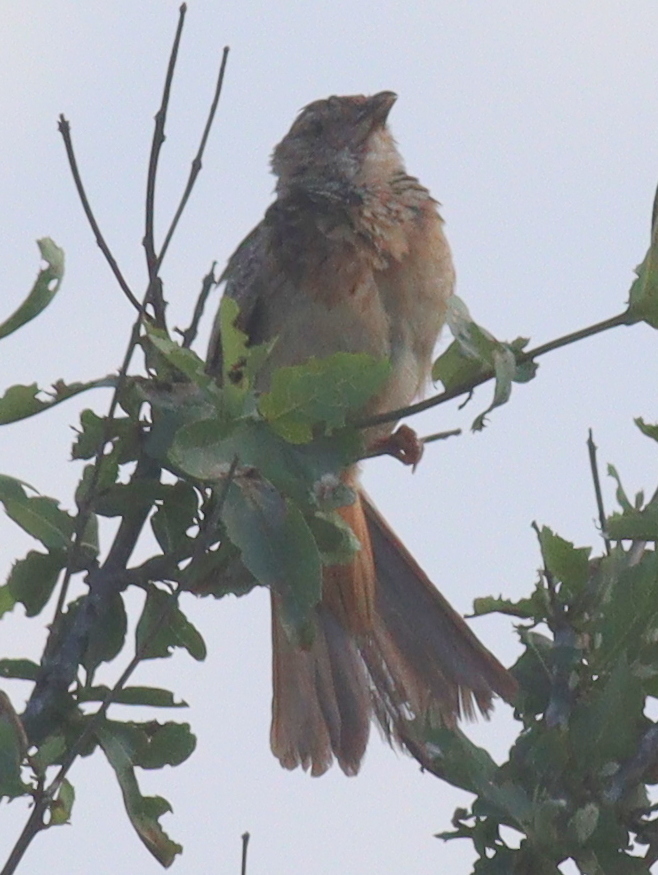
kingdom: Animalia
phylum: Chordata
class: Aves
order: Passeriformes
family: Alaudidae
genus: Mirafra
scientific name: Mirafra hypermetra
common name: Red-winged lark
